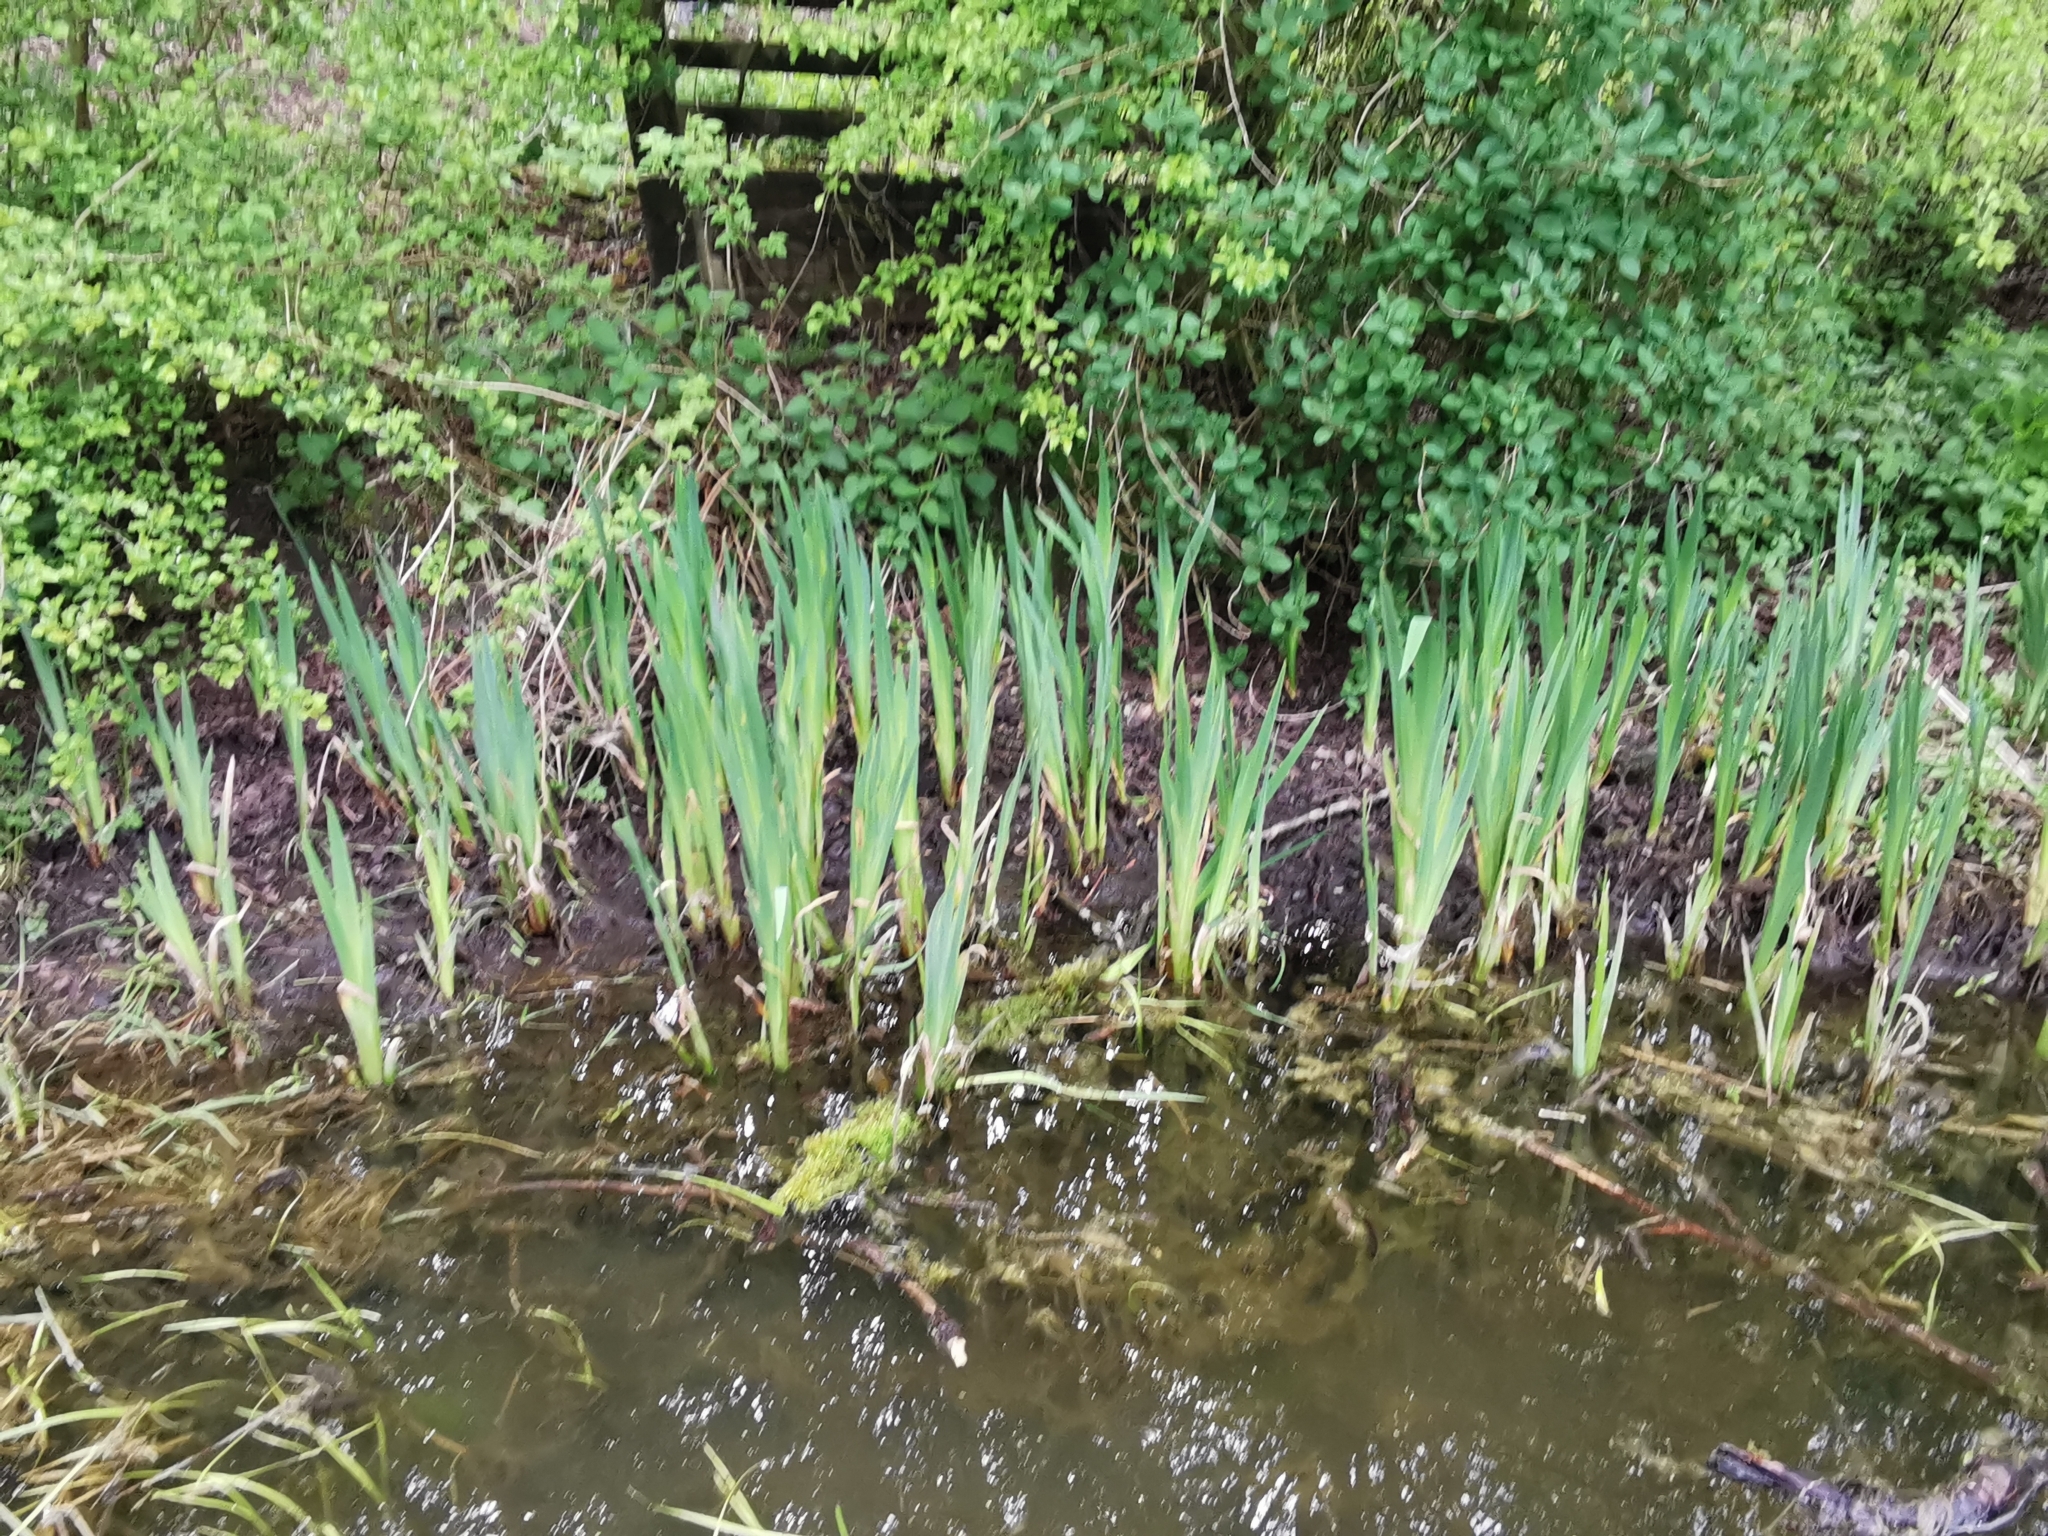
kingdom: Plantae
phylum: Tracheophyta
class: Liliopsida
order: Asparagales
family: Iridaceae
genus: Iris
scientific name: Iris pseudacorus
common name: Yellow flag
